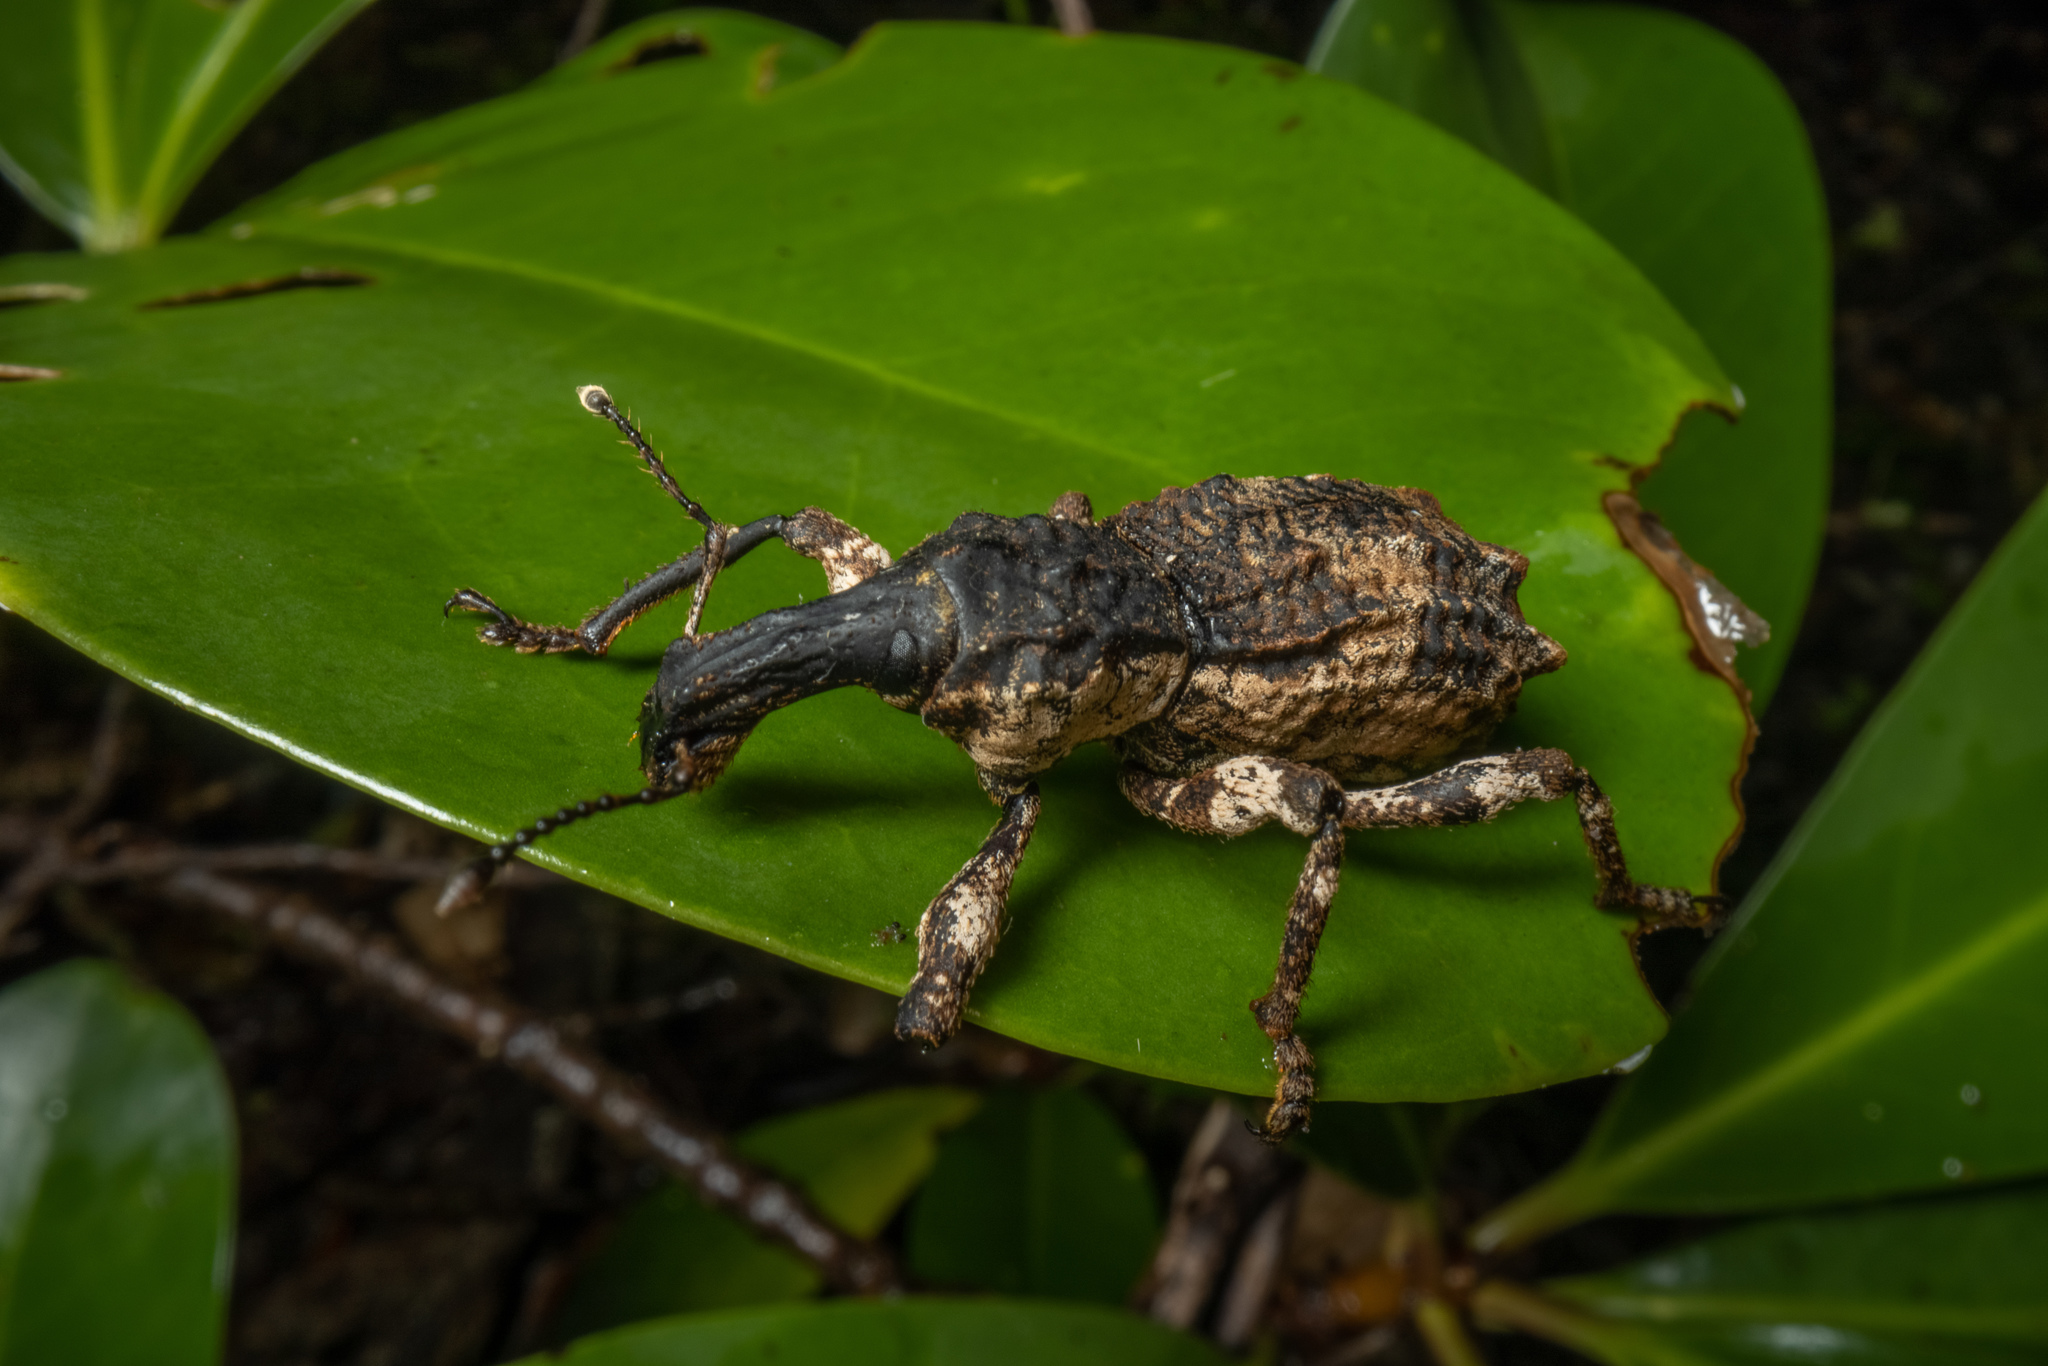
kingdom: Animalia
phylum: Arthropoda
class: Insecta
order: Coleoptera
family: Curculionidae
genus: Anagotus
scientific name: Anagotus turbotti
